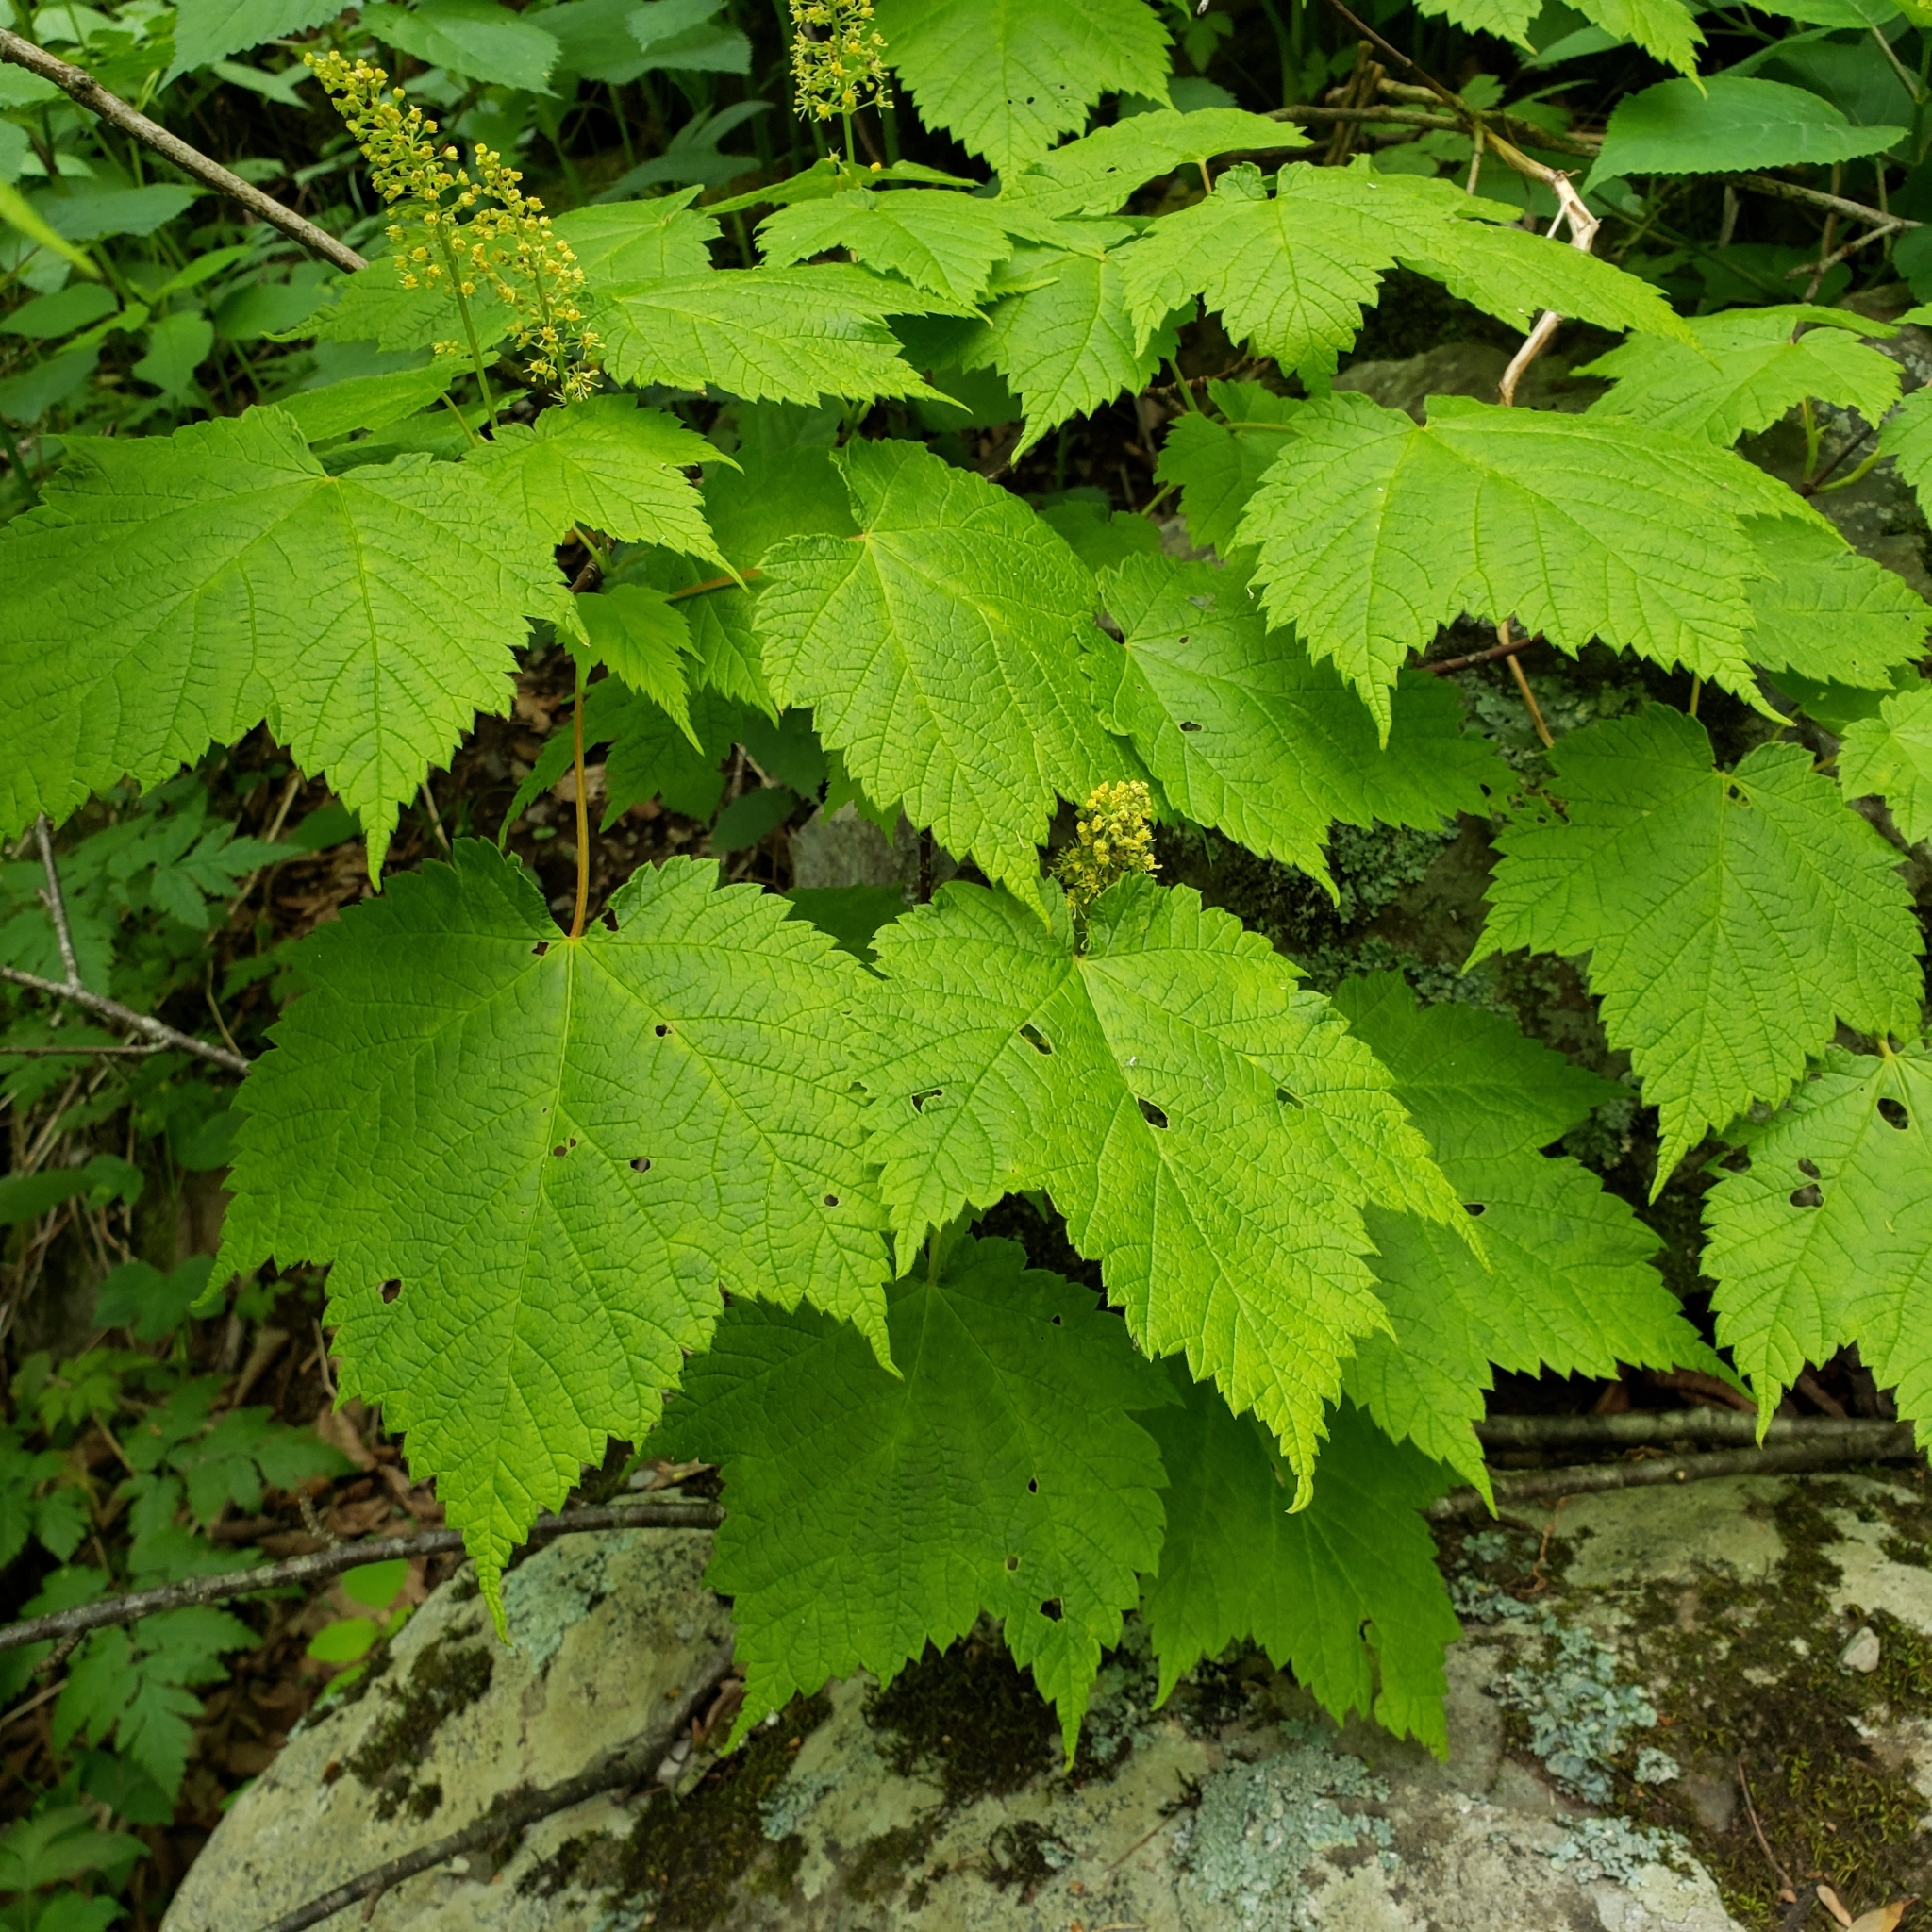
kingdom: Plantae
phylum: Tracheophyta
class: Magnoliopsida
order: Sapindales
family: Sapindaceae
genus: Acer
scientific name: Acer spicatum
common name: Mountain maple
